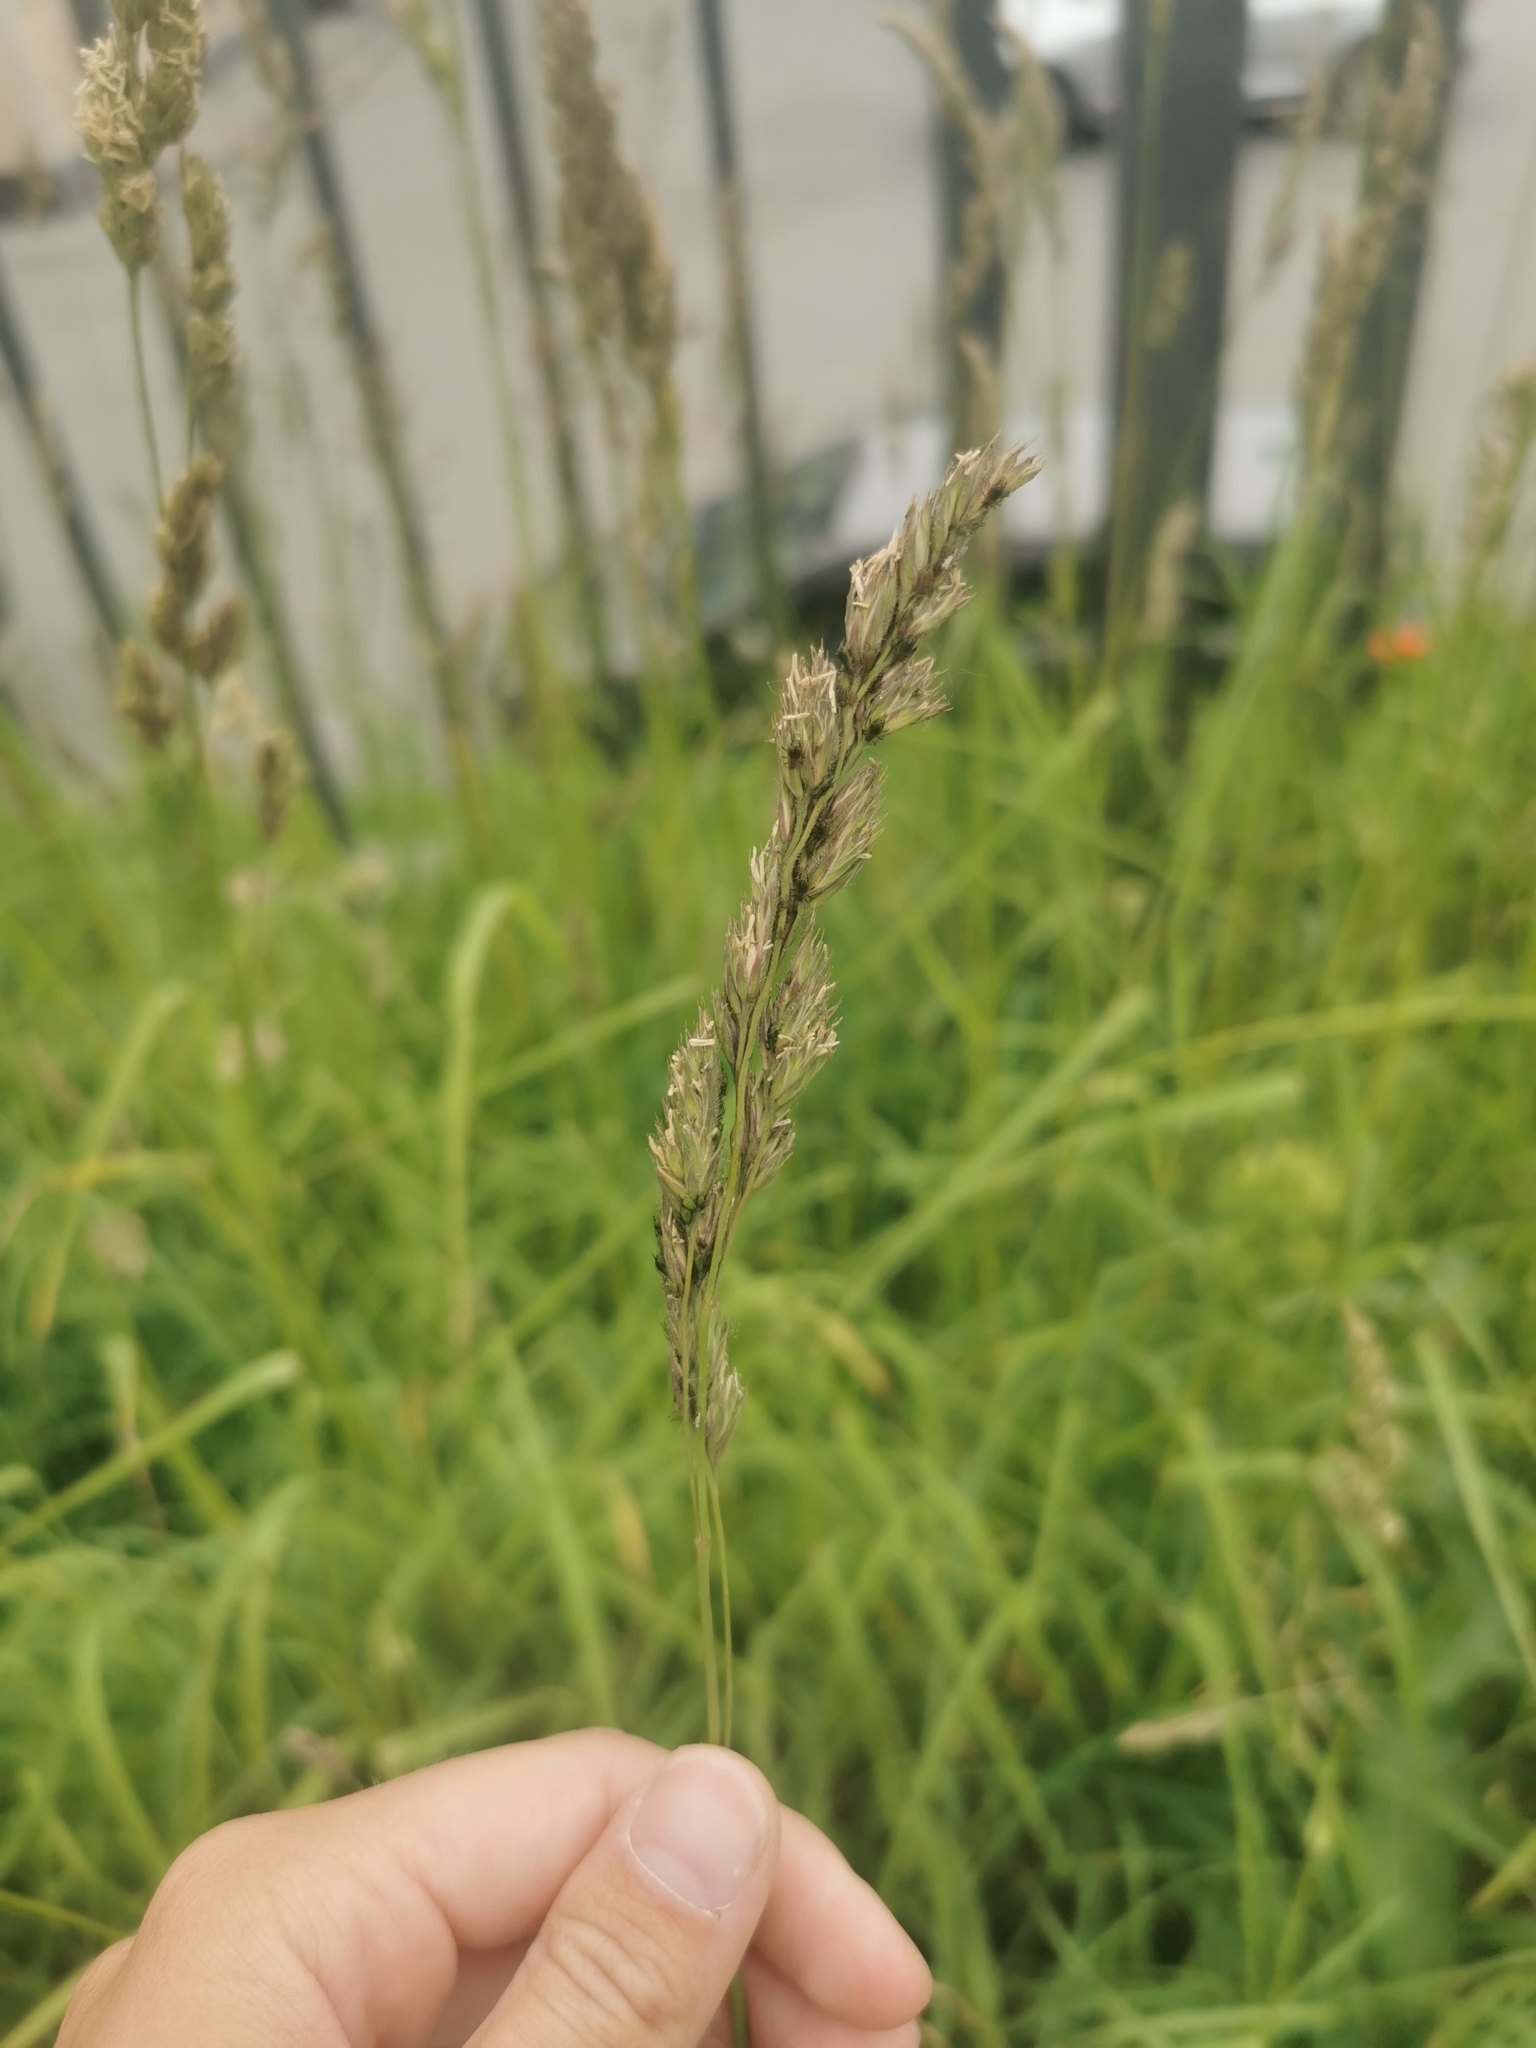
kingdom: Plantae
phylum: Tracheophyta
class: Liliopsida
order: Poales
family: Poaceae
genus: Dactylis
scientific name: Dactylis glomerata
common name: Orchardgrass
